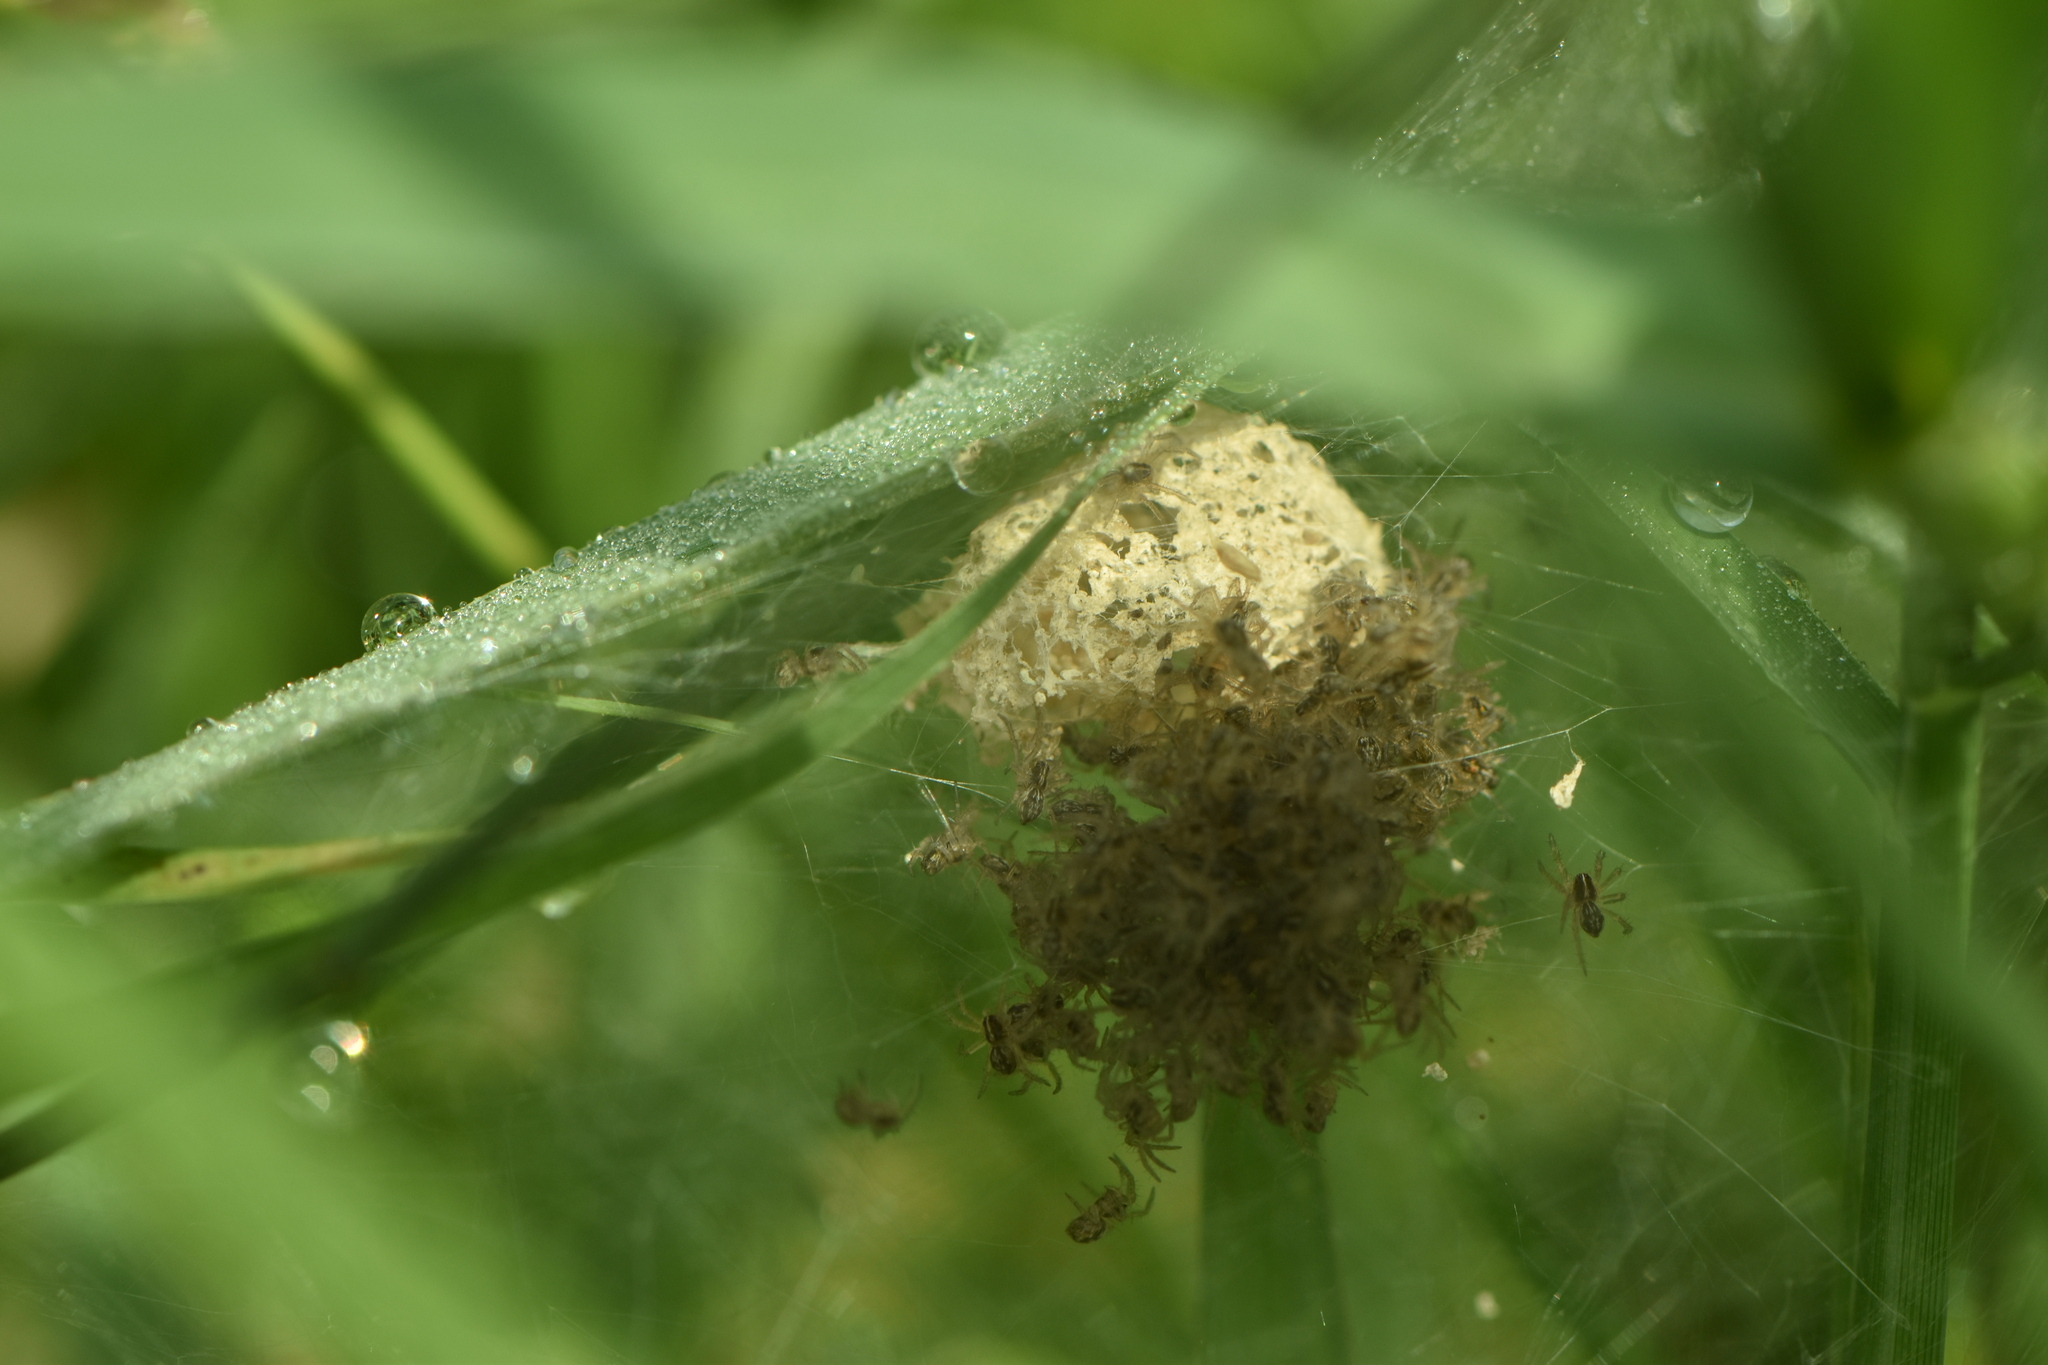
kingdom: Animalia
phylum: Arthropoda
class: Arachnida
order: Araneae
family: Pisauridae
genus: Pisaura
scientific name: Pisaura mirabilis
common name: Tent spider
